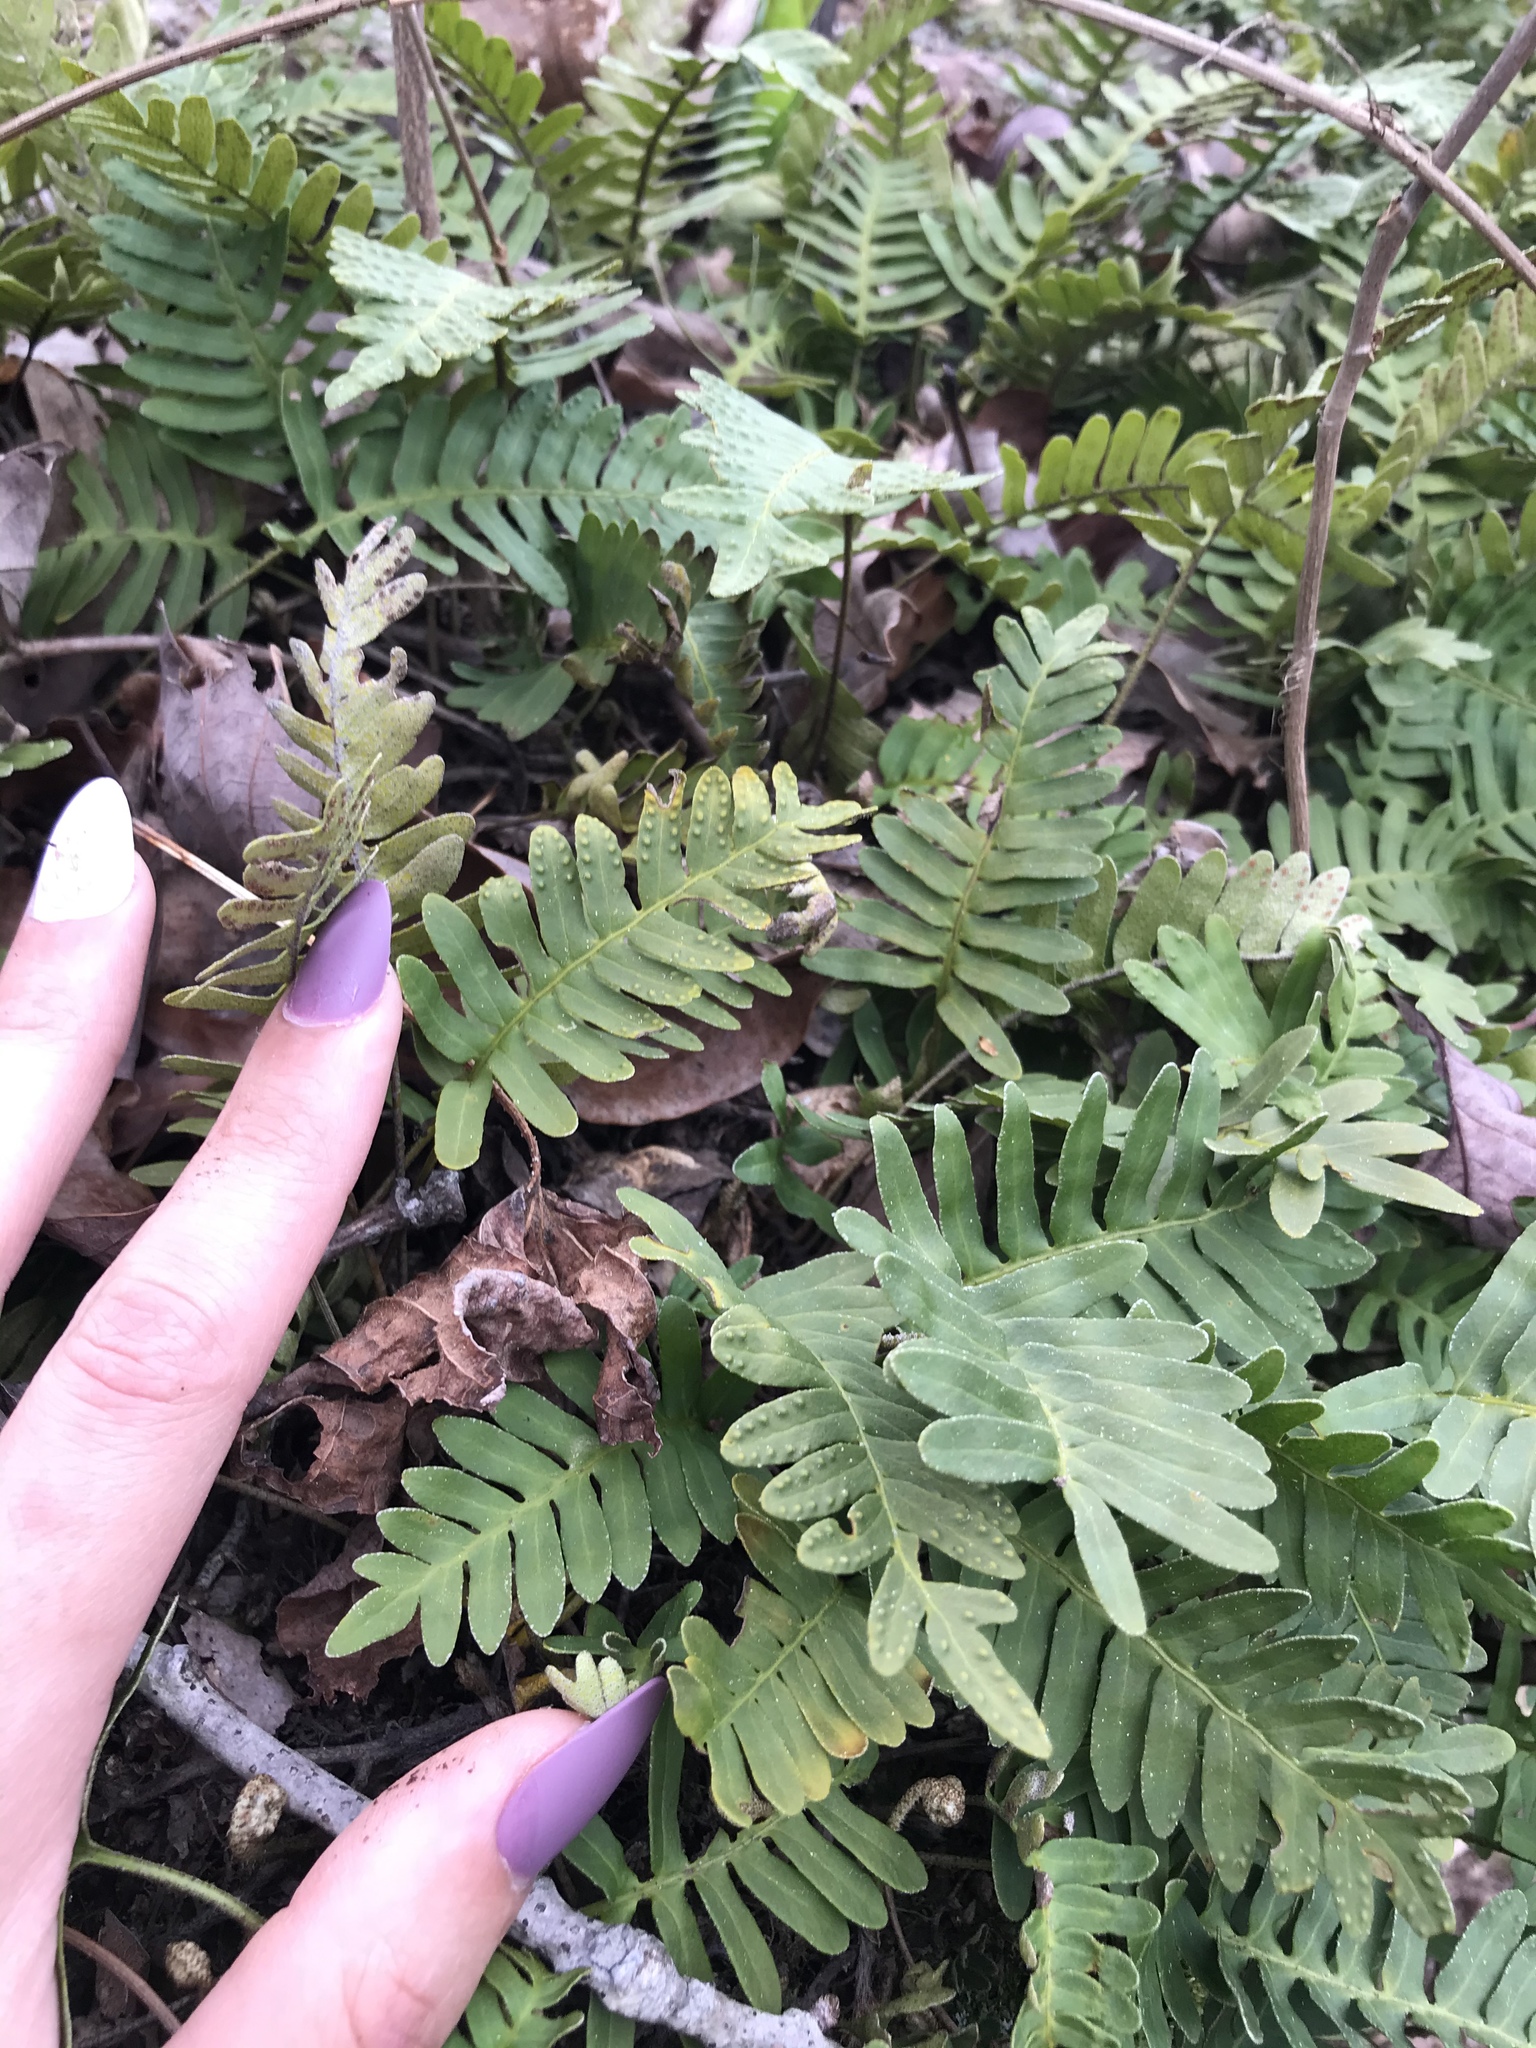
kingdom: Plantae
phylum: Tracheophyta
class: Polypodiopsida
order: Polypodiales
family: Polypodiaceae
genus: Pleopeltis
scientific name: Pleopeltis michauxiana
